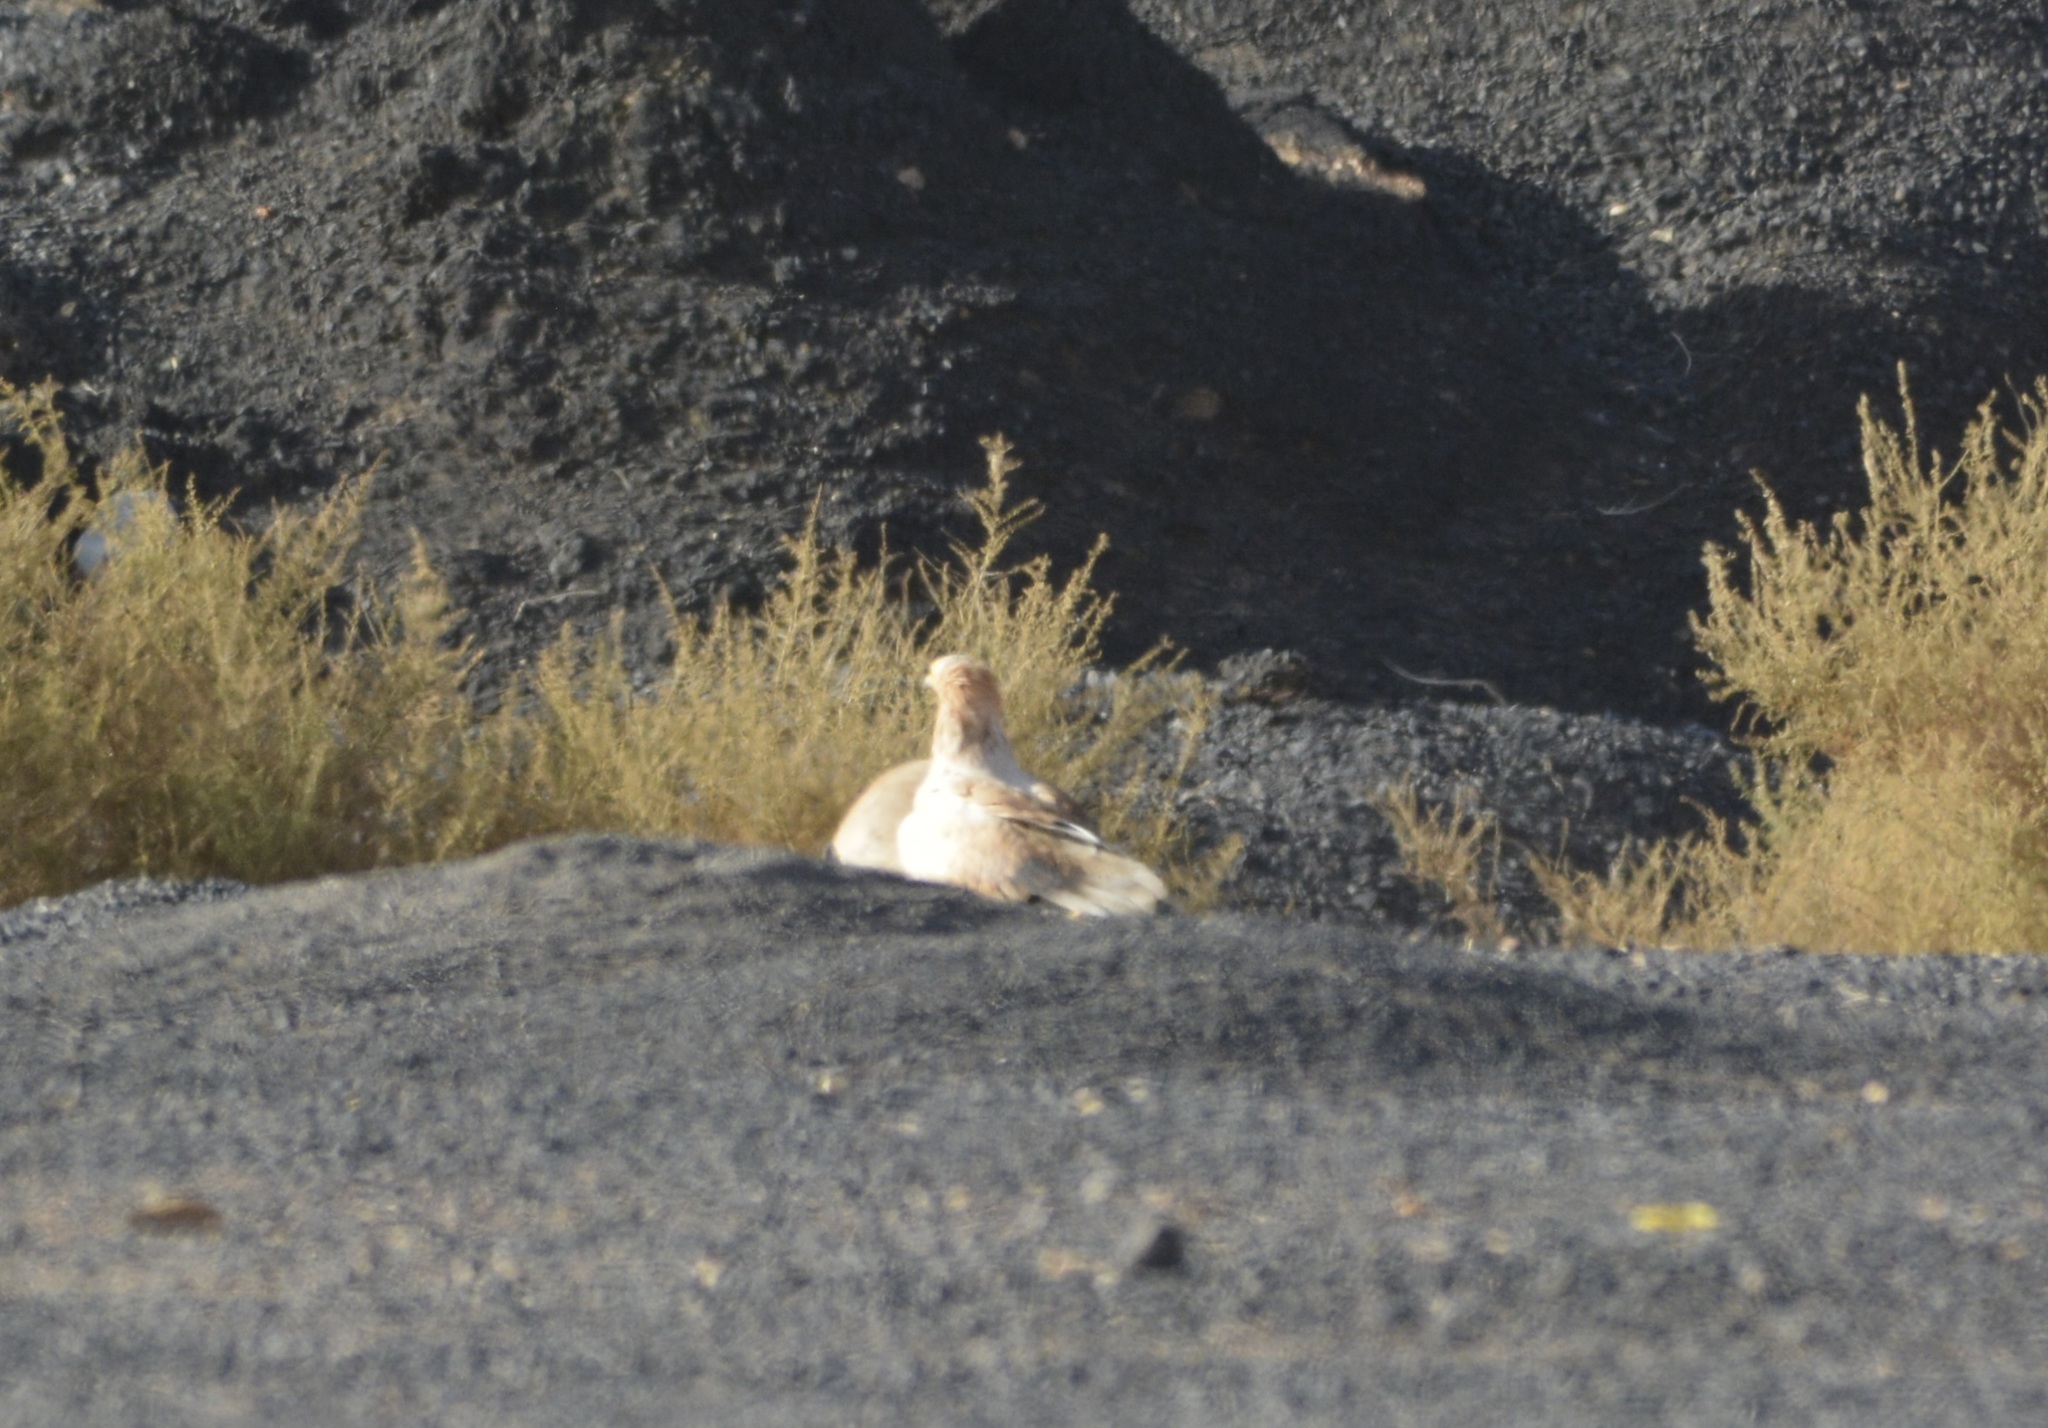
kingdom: Animalia
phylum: Chordata
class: Aves
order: Accipitriformes
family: Accipitridae
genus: Neophron
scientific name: Neophron percnopterus
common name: Egyptian vulture
